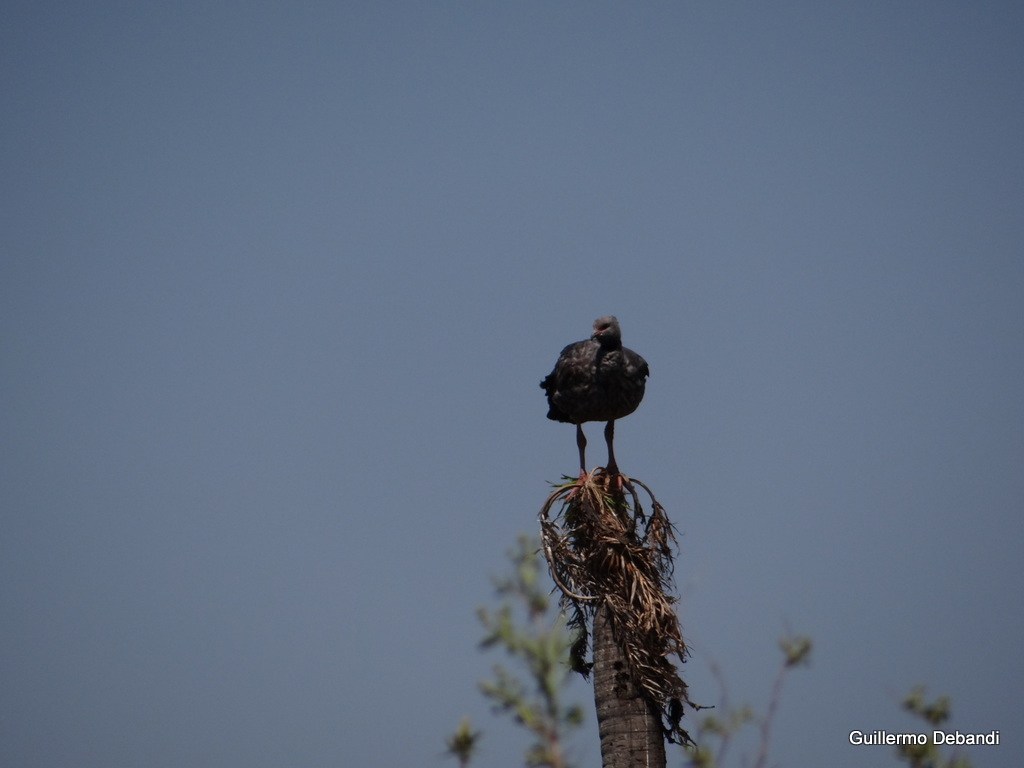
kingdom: Animalia
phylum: Chordata
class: Aves
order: Anseriformes
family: Anhimidae
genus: Chauna
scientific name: Chauna torquata
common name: Southern screamer
